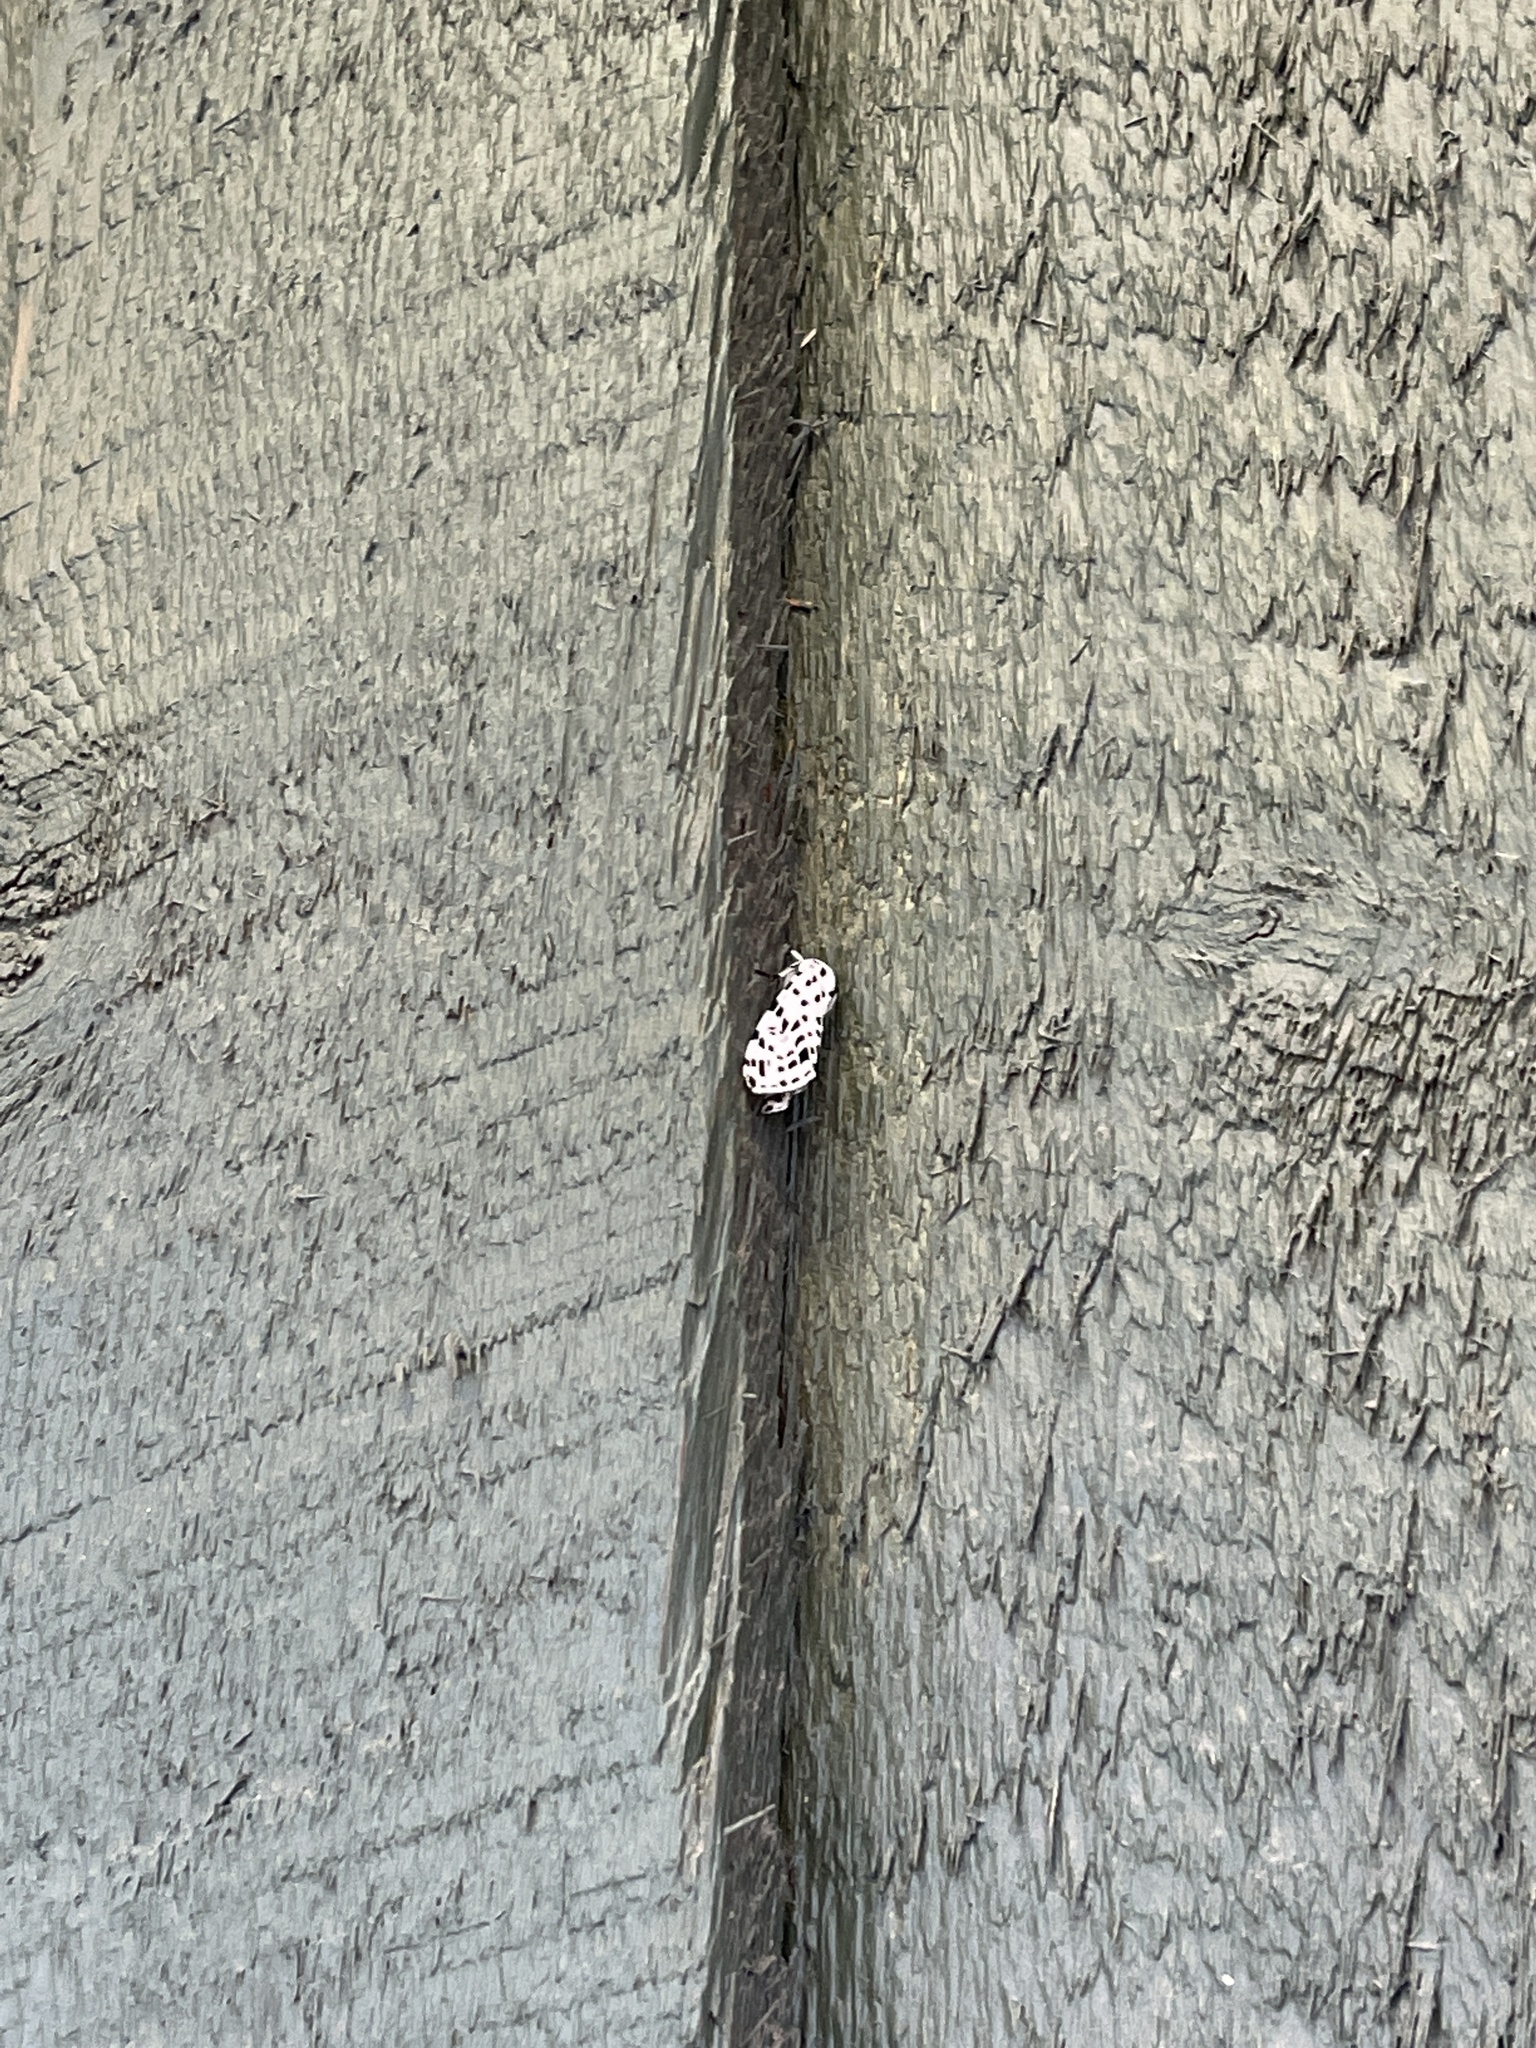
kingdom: Animalia
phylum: Arthropoda
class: Insecta
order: Lepidoptera
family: Erebidae
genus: Hypercompe
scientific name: Hypercompe permaculata
